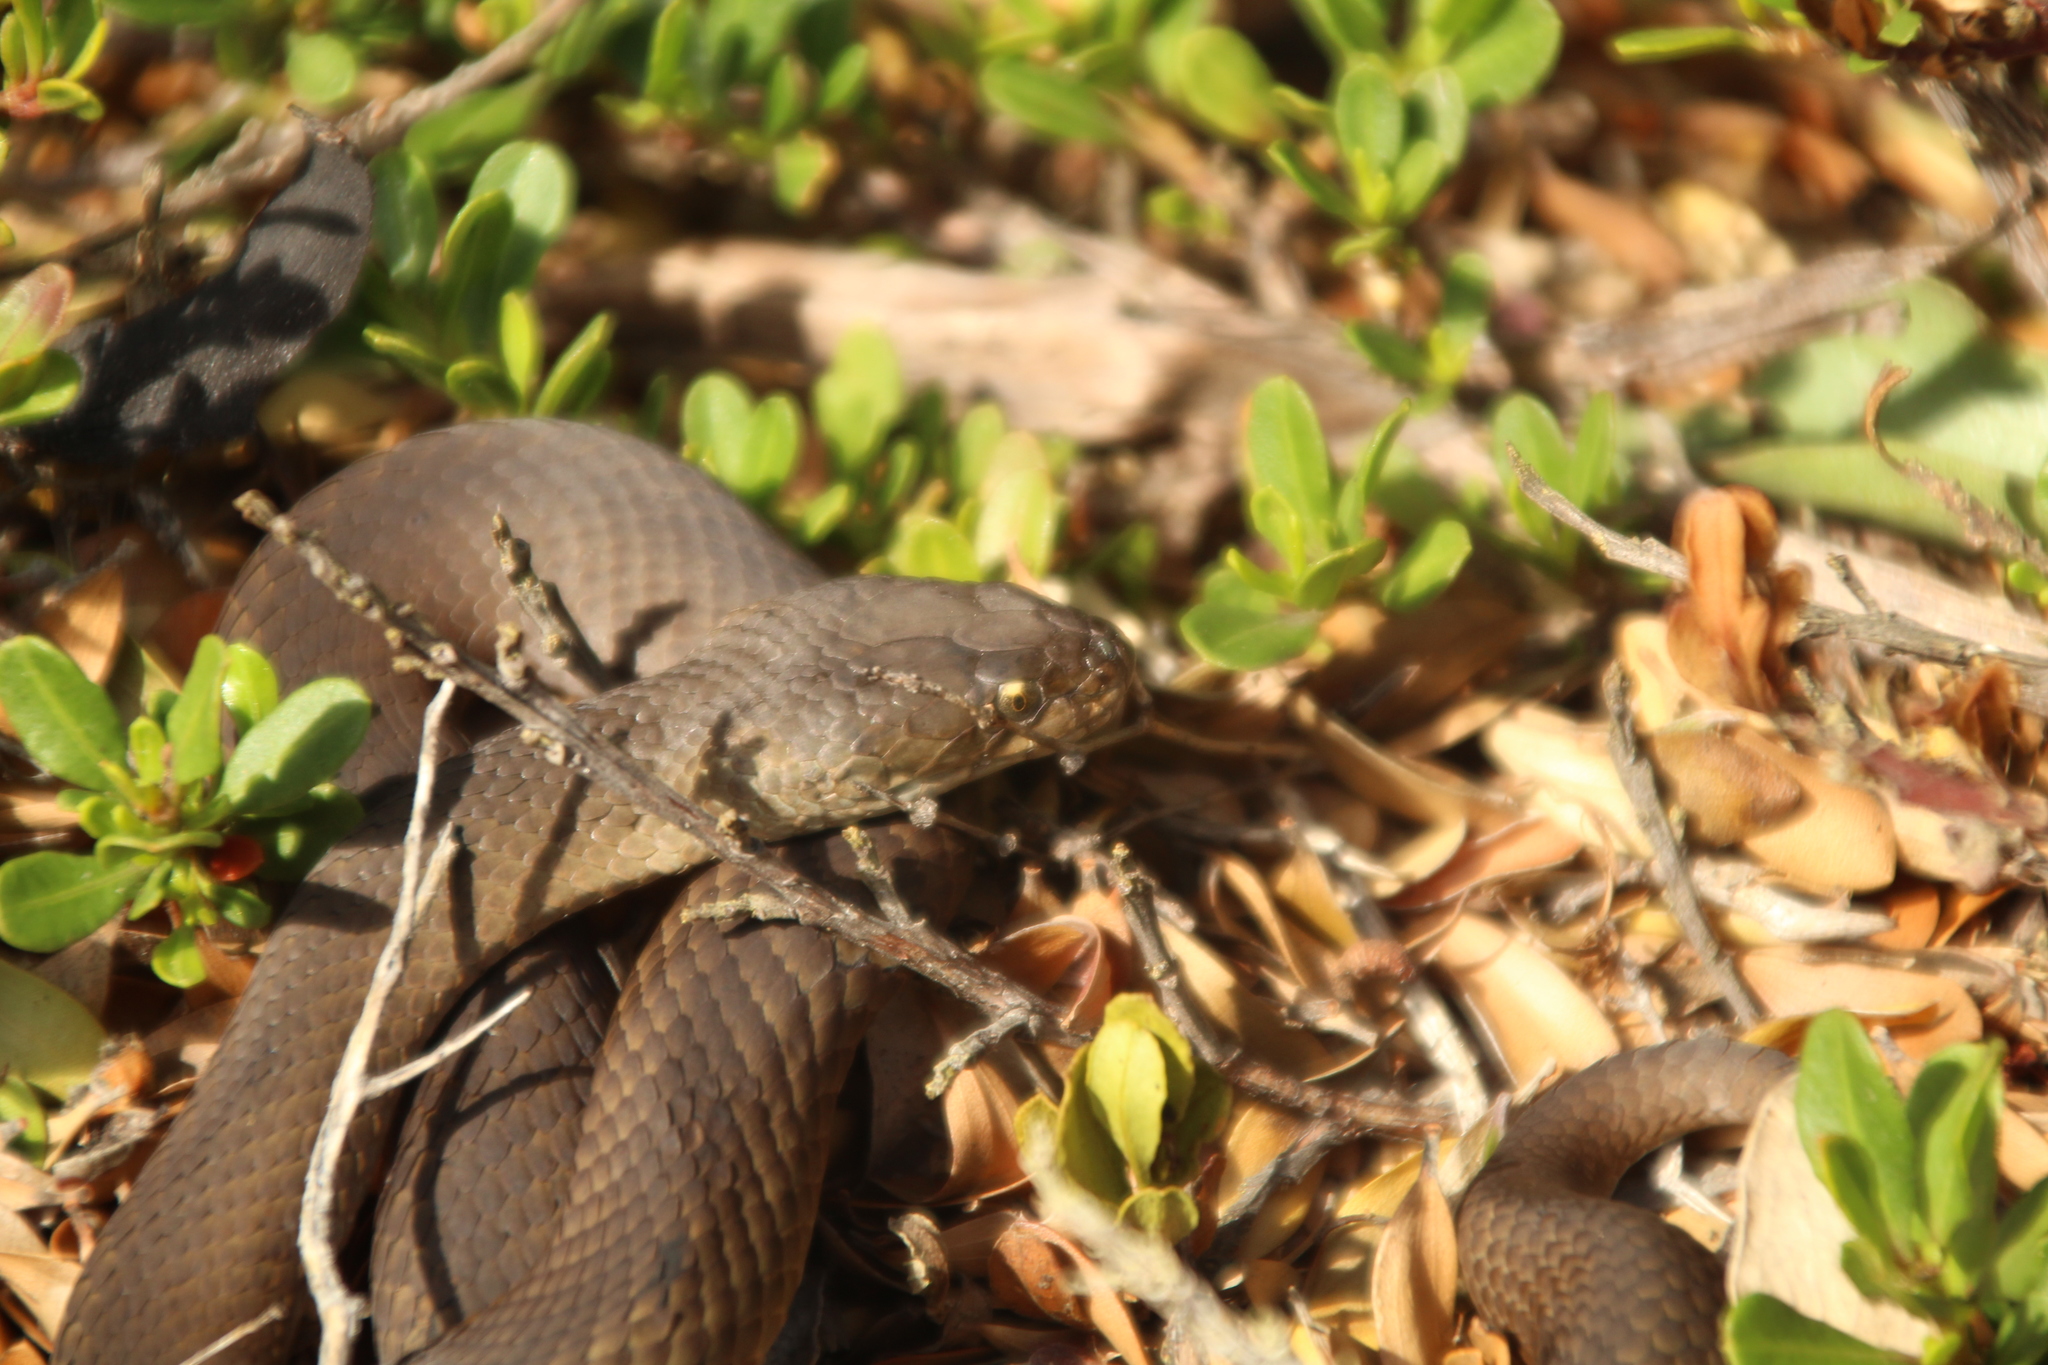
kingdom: Animalia
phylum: Chordata
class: Squamata
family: Elapidae
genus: Echiopsis
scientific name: Echiopsis curta
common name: Bardick
